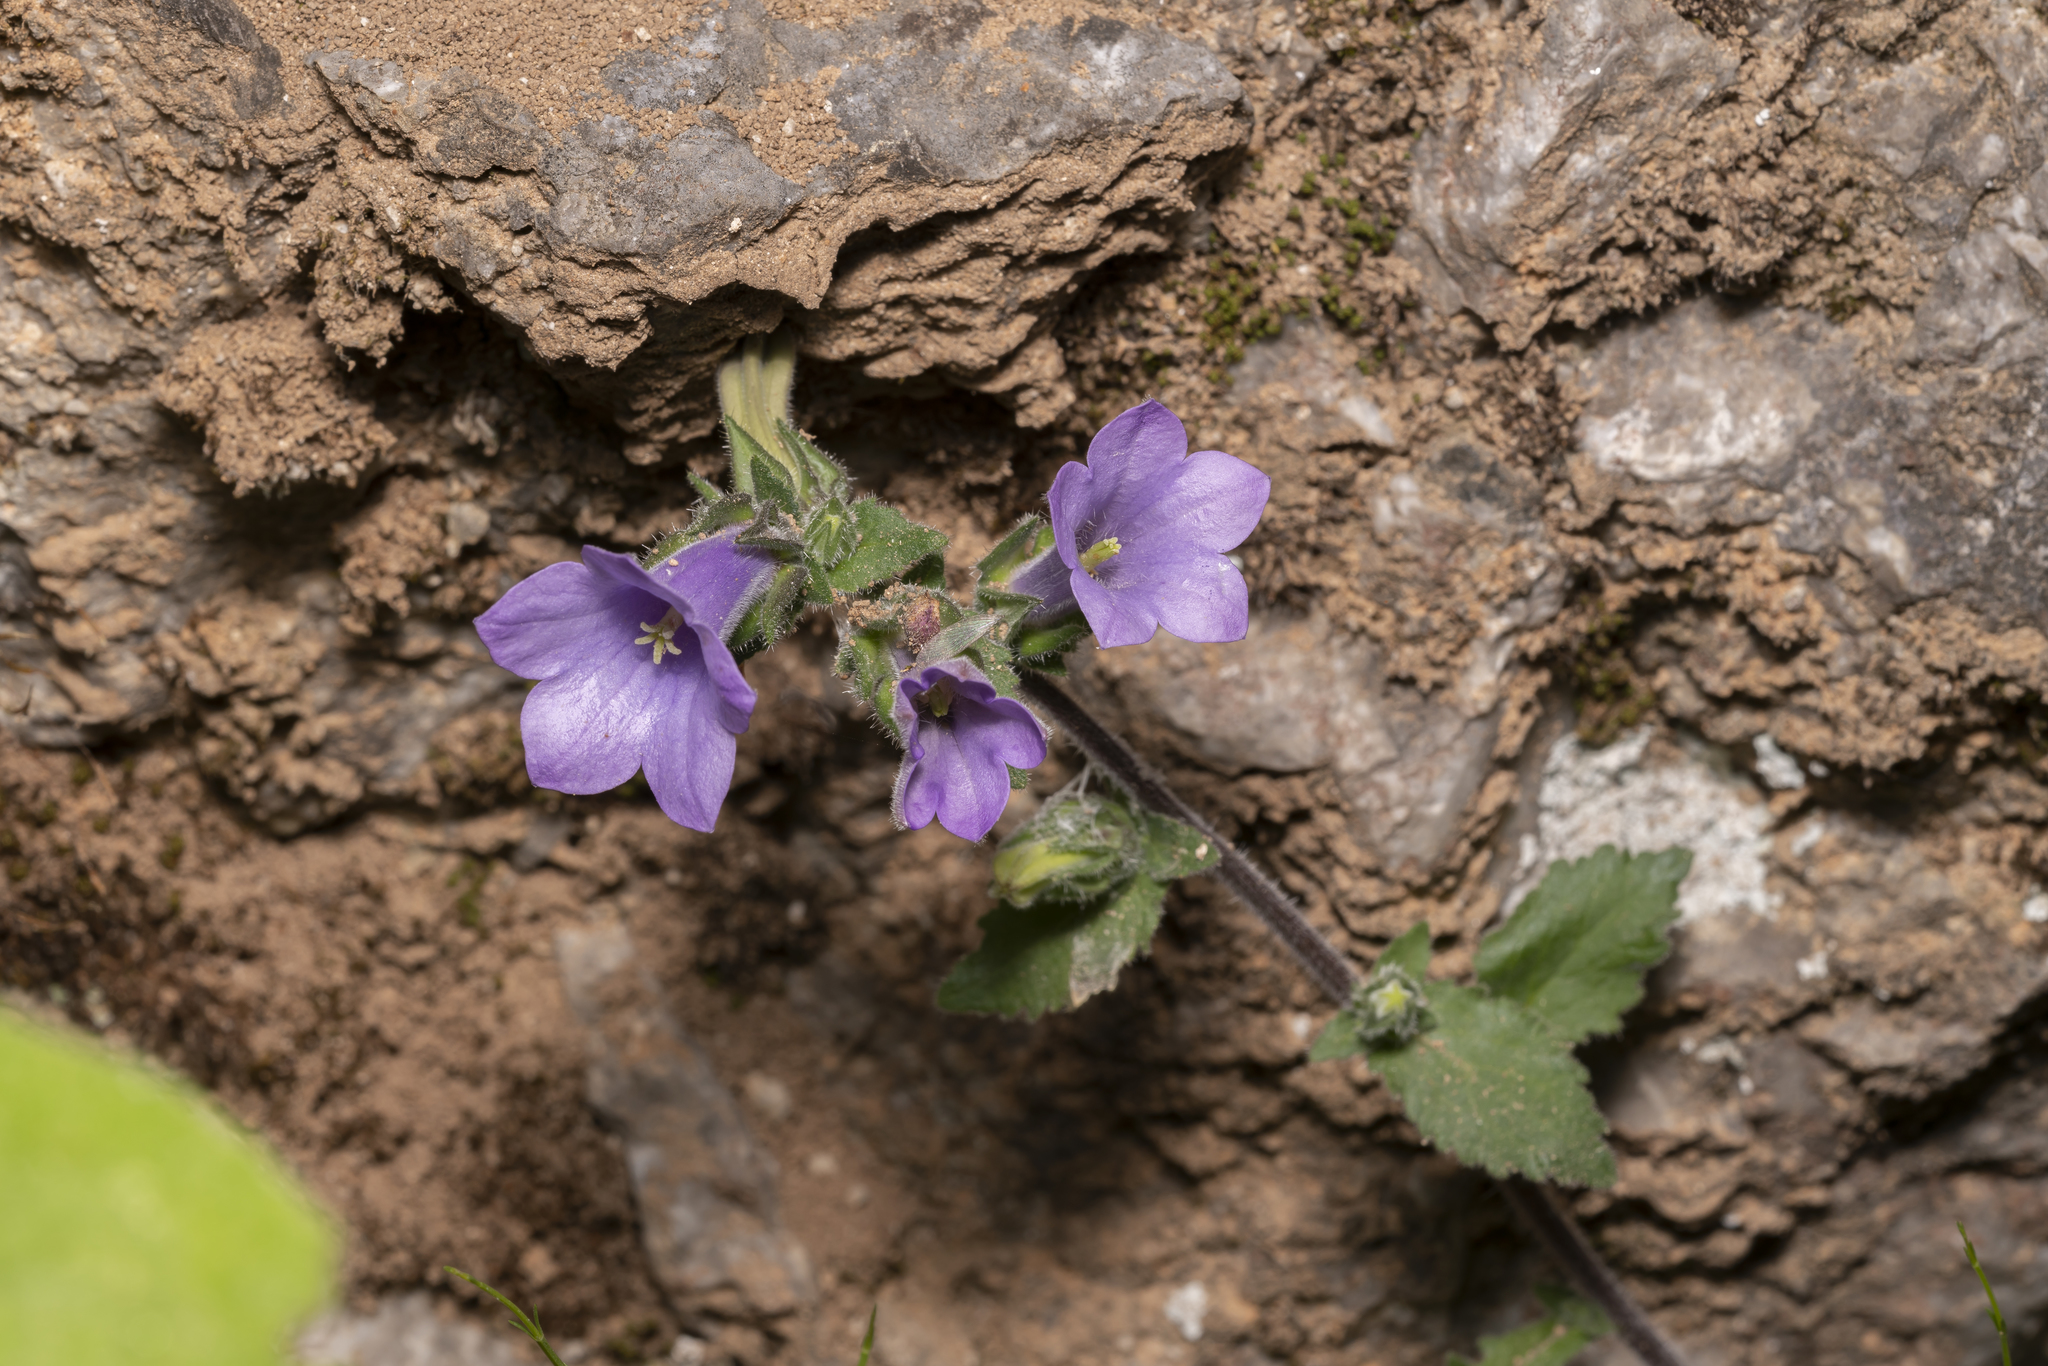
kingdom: Plantae
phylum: Tracheophyta
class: Magnoliopsida
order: Asterales
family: Campanulaceae
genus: Campanula
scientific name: Campanula hagielia
